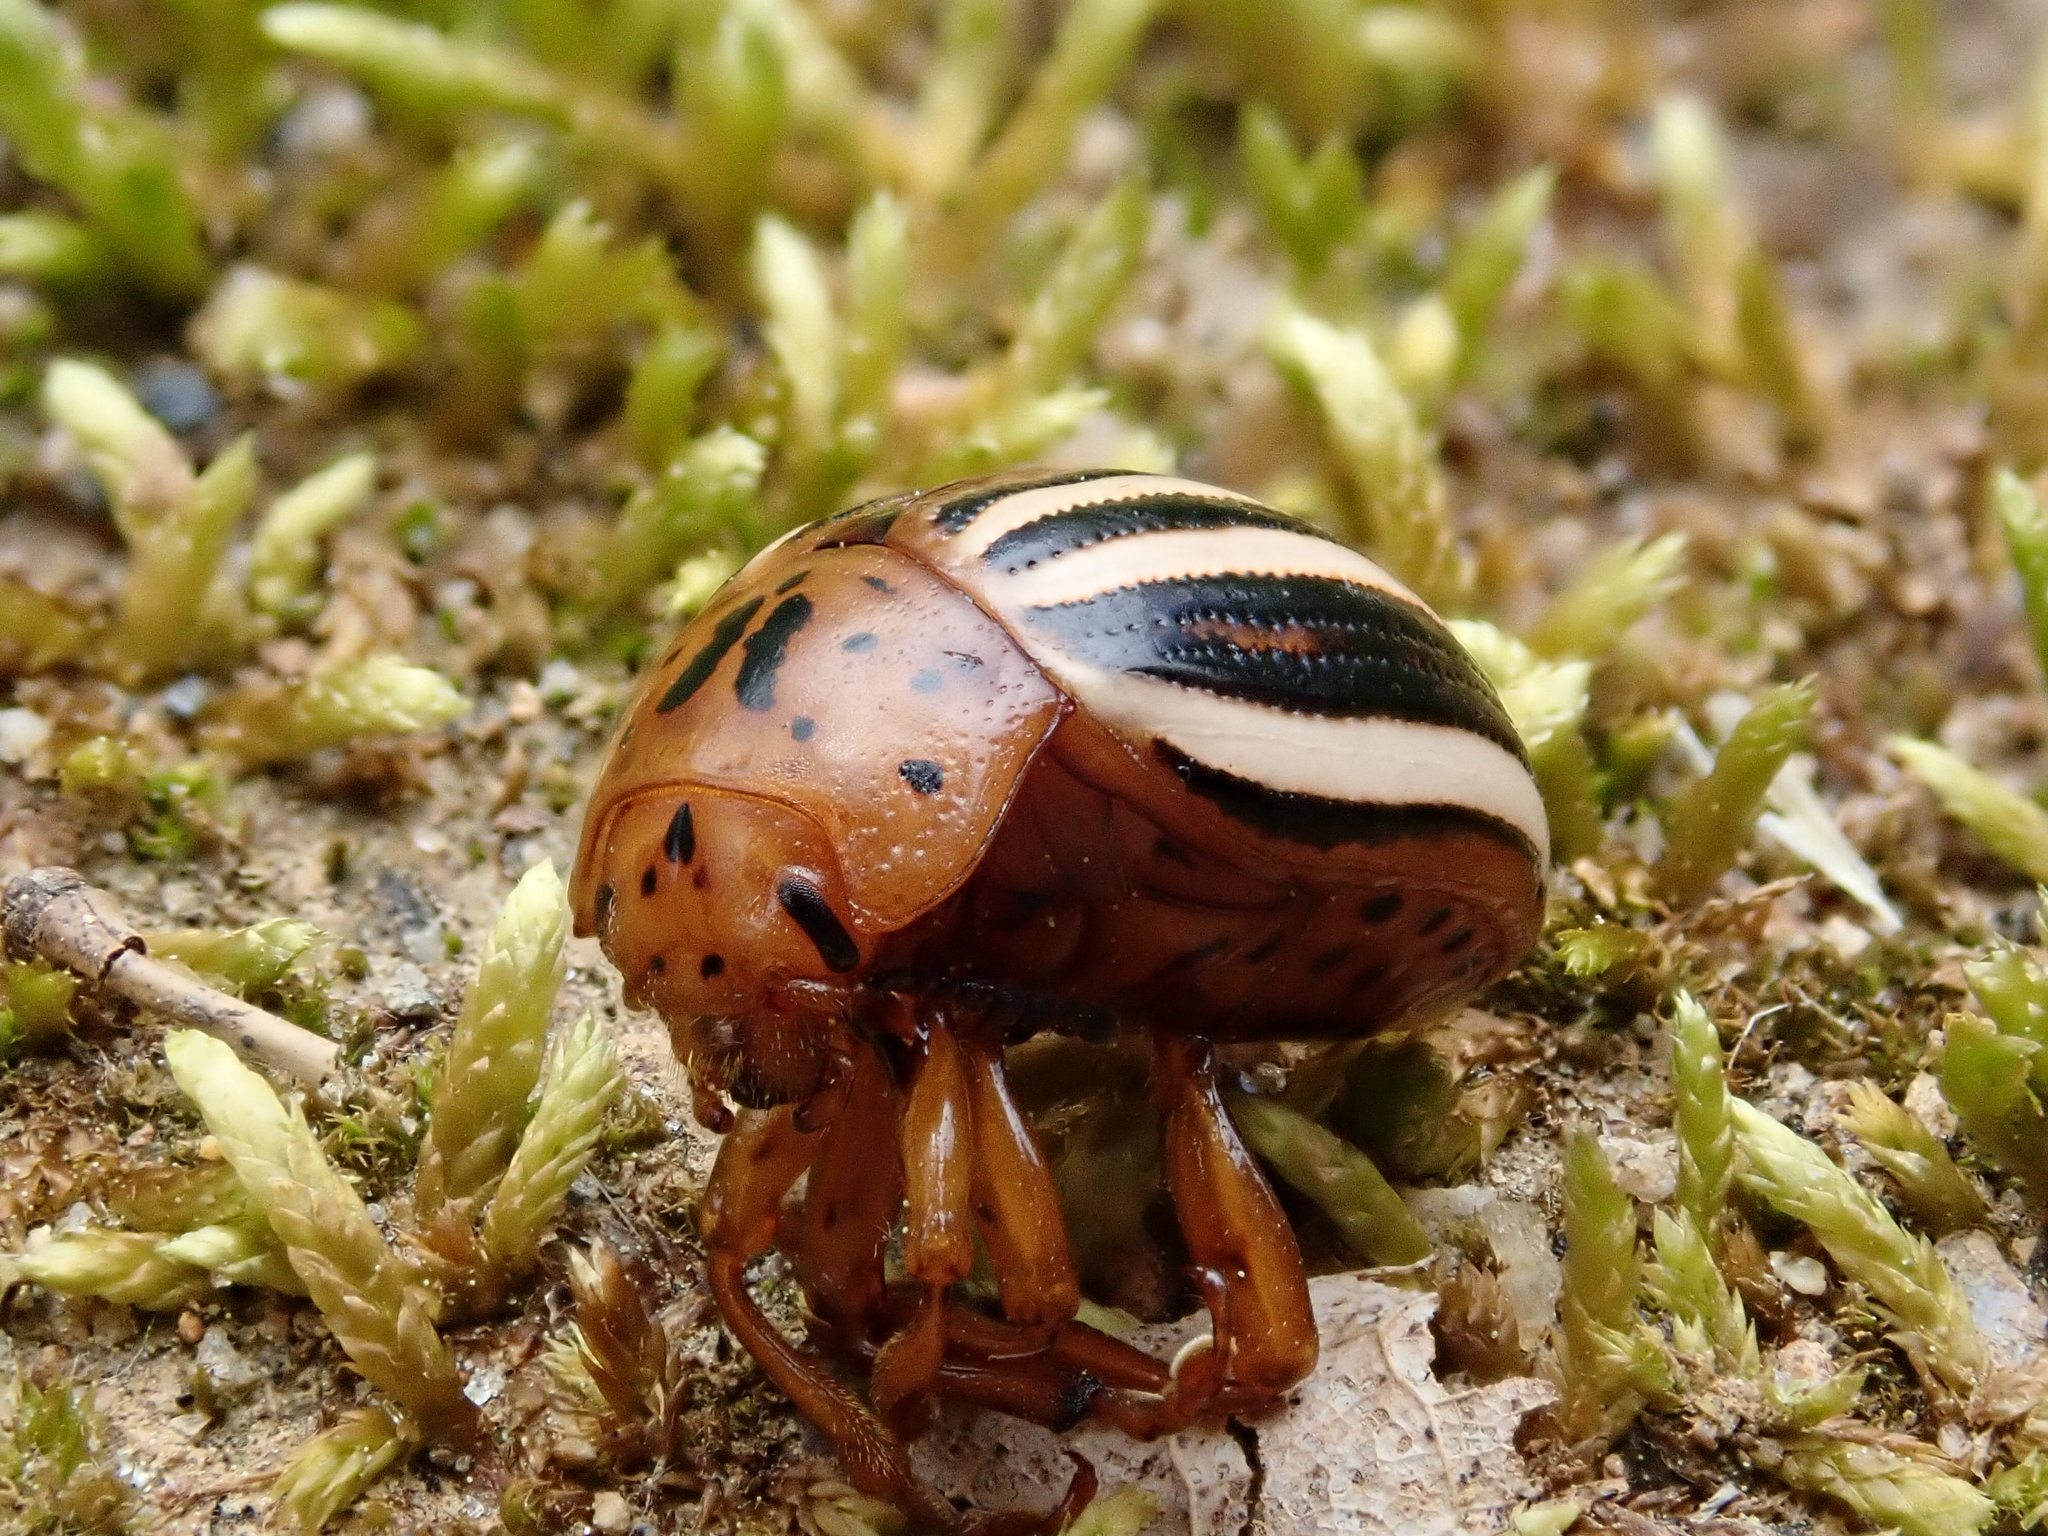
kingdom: Animalia
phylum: Arthropoda
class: Insecta
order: Coleoptera
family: Chrysomelidae
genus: Leptinotarsa
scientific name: Leptinotarsa juncta
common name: False potato beetle
